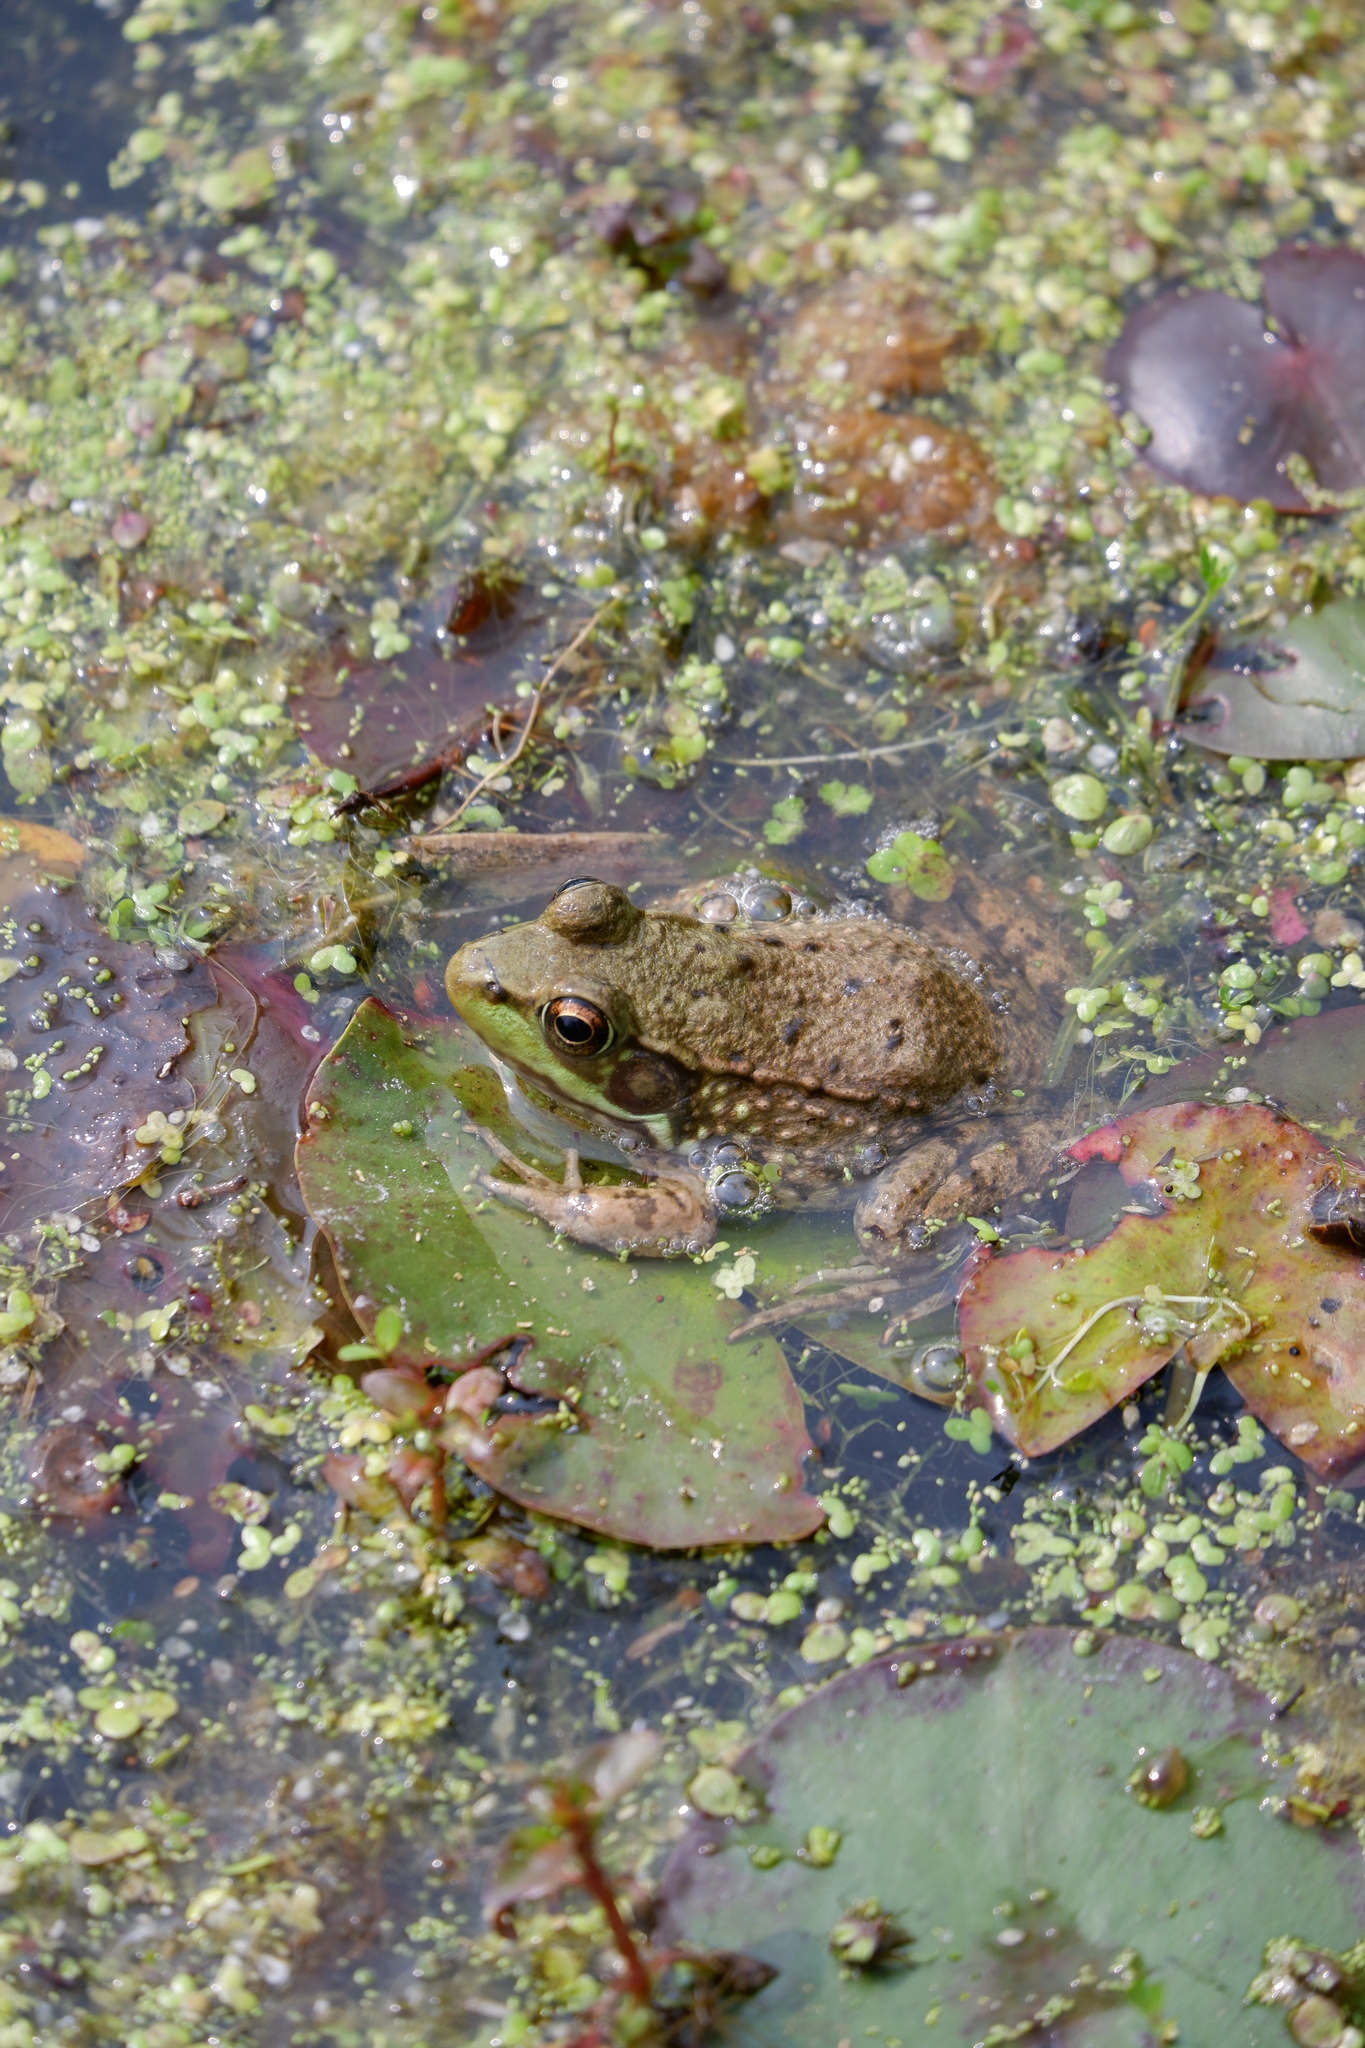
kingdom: Animalia
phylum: Chordata
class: Amphibia
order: Anura
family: Ranidae
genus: Lithobates
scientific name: Lithobates clamitans
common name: Green frog
